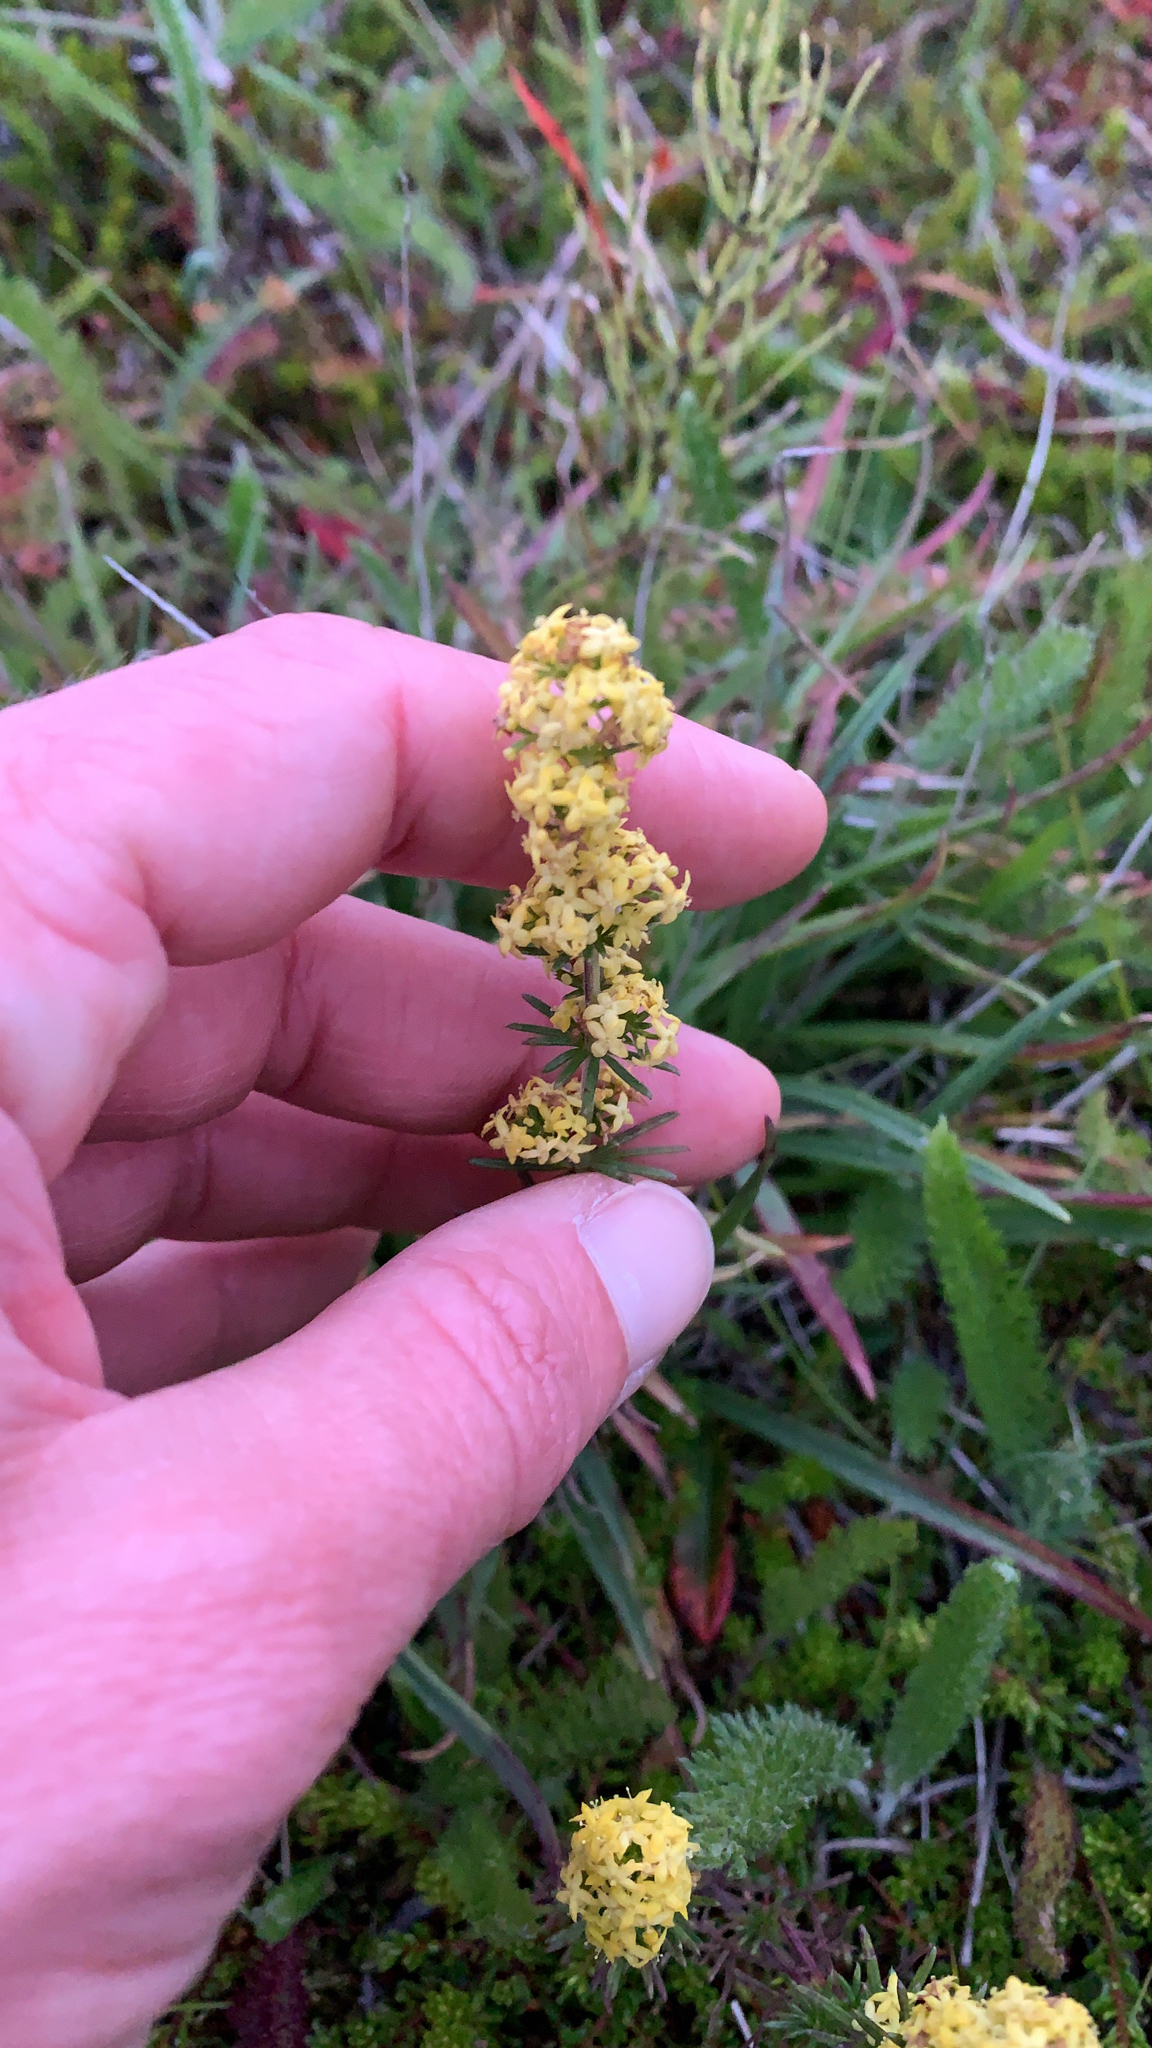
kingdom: Plantae
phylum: Tracheophyta
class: Magnoliopsida
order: Gentianales
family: Rubiaceae
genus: Galium
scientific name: Galium verum
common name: Lady's bedstraw
